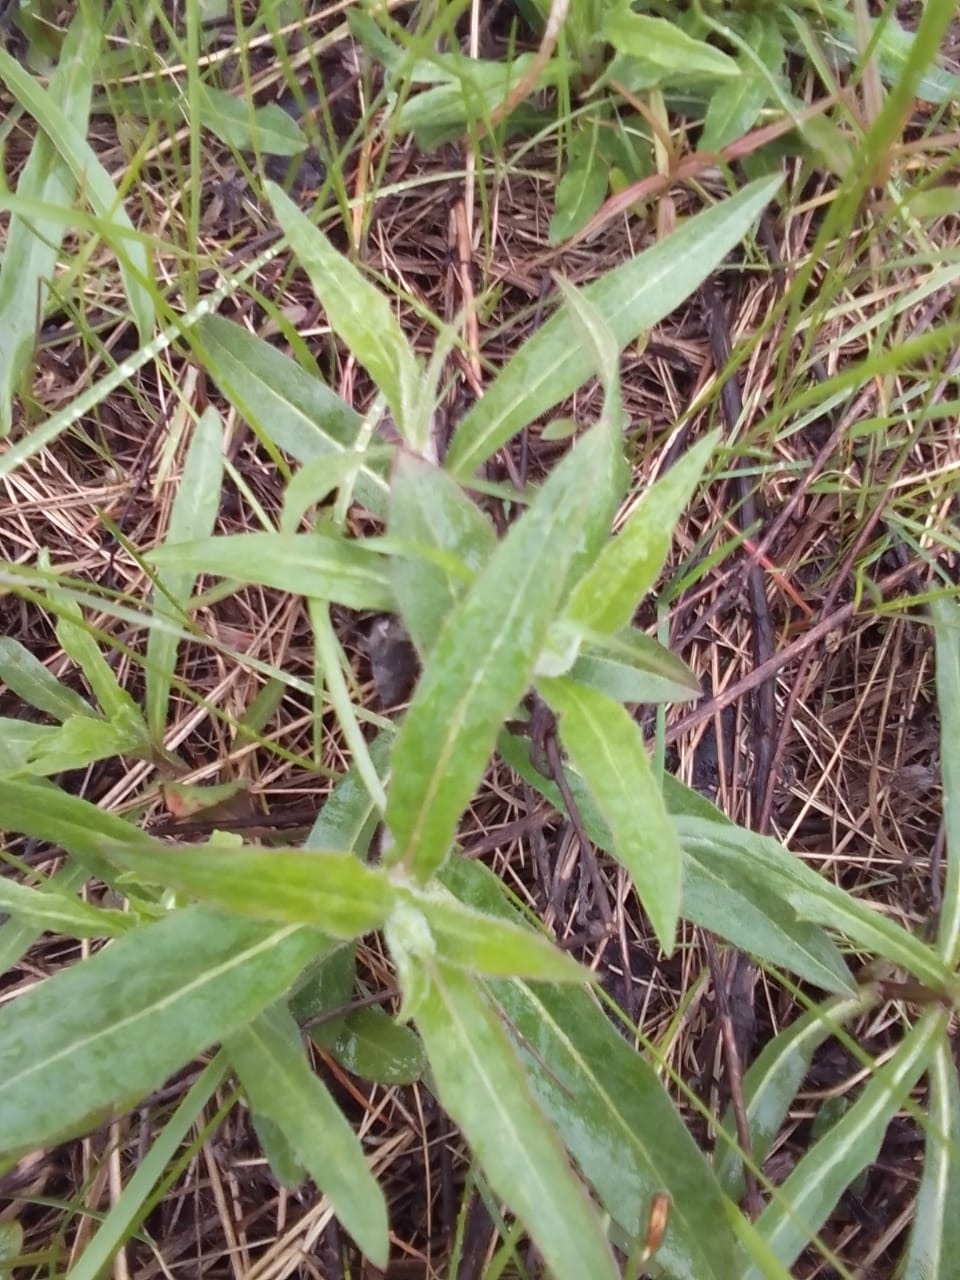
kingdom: Plantae
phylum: Tracheophyta
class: Magnoliopsida
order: Asterales
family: Asteraceae
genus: Hieracium
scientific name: Hieracium umbellatum
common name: Northern hawkweed
